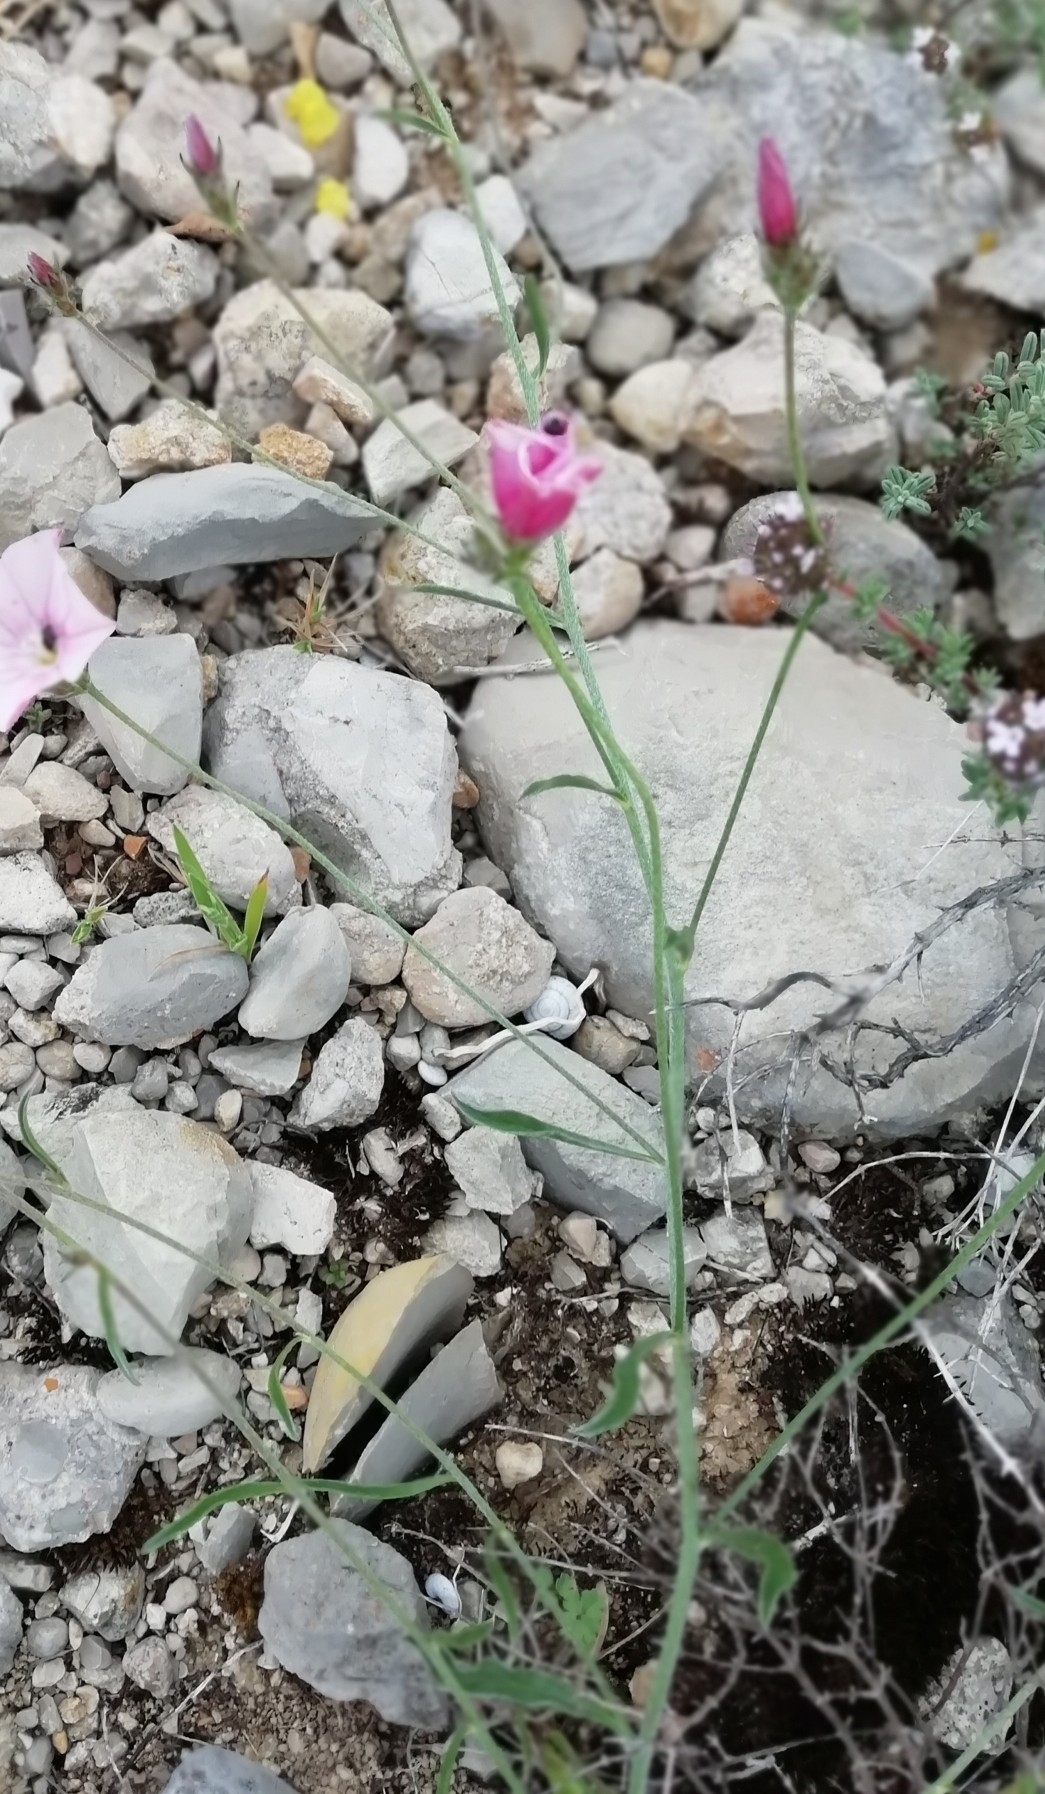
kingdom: Plantae
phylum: Tracheophyta
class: Magnoliopsida
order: Solanales
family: Convolvulaceae
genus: Convolvulus
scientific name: Convolvulus cantabrica
